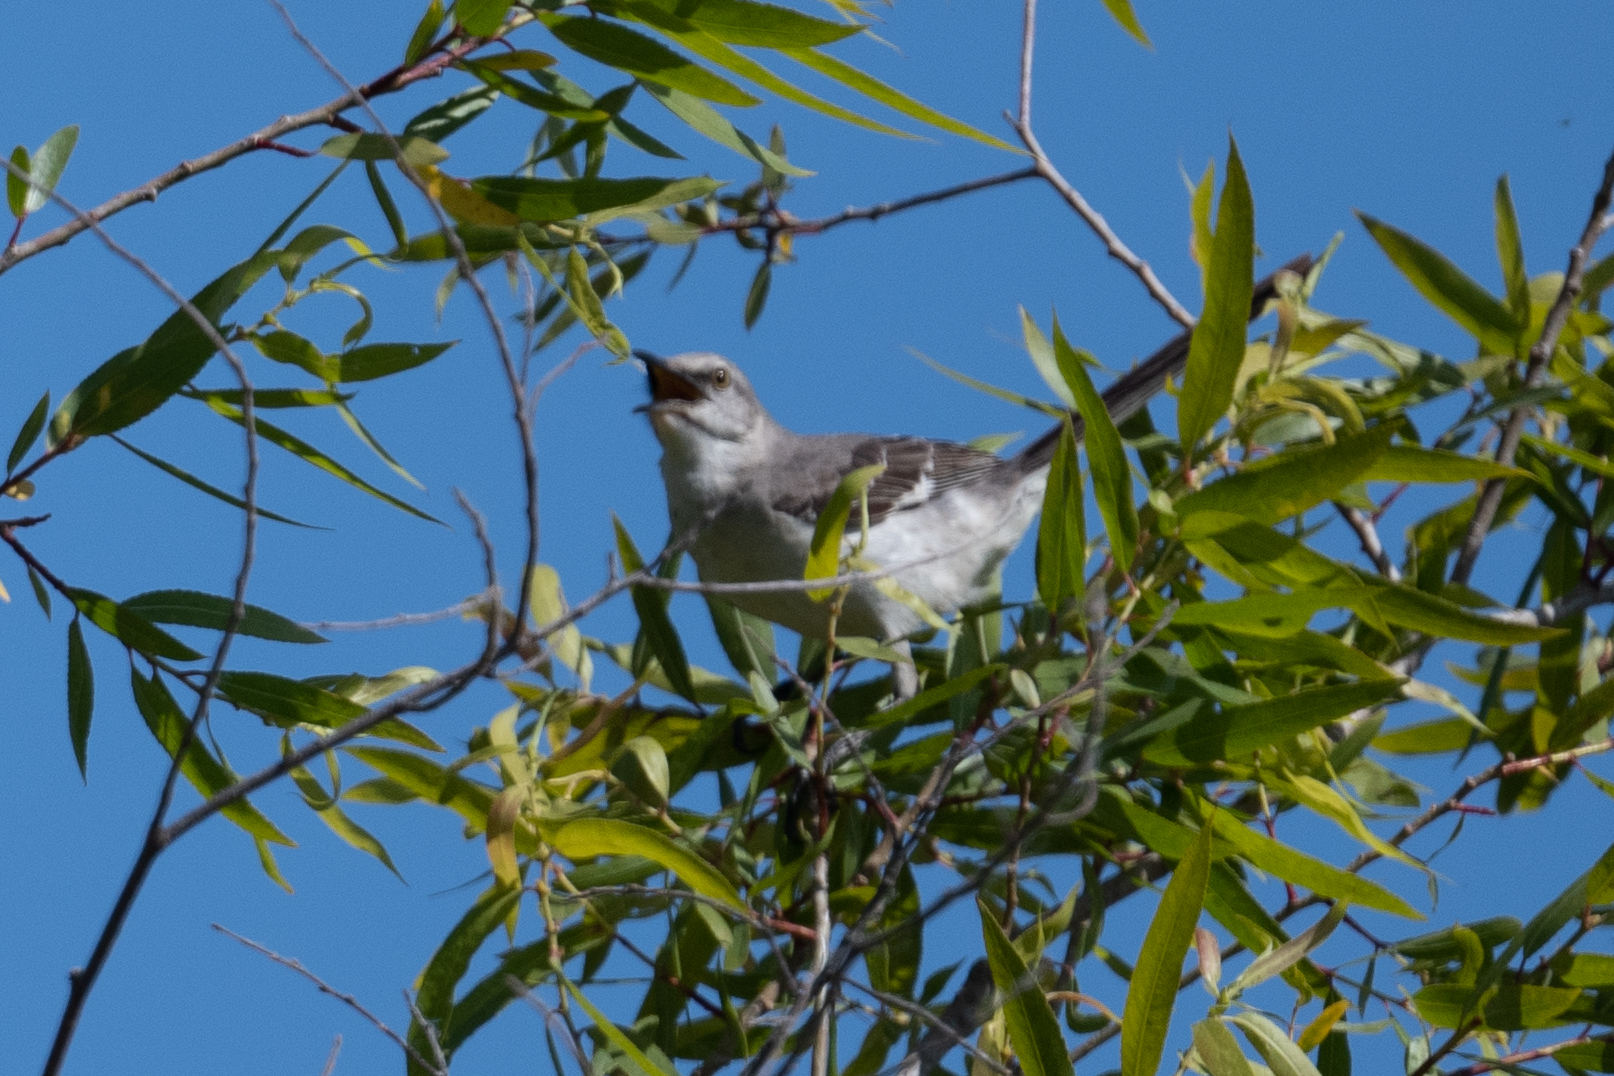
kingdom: Animalia
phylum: Chordata
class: Aves
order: Passeriformes
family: Mimidae
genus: Mimus
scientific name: Mimus polyglottos
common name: Northern mockingbird
